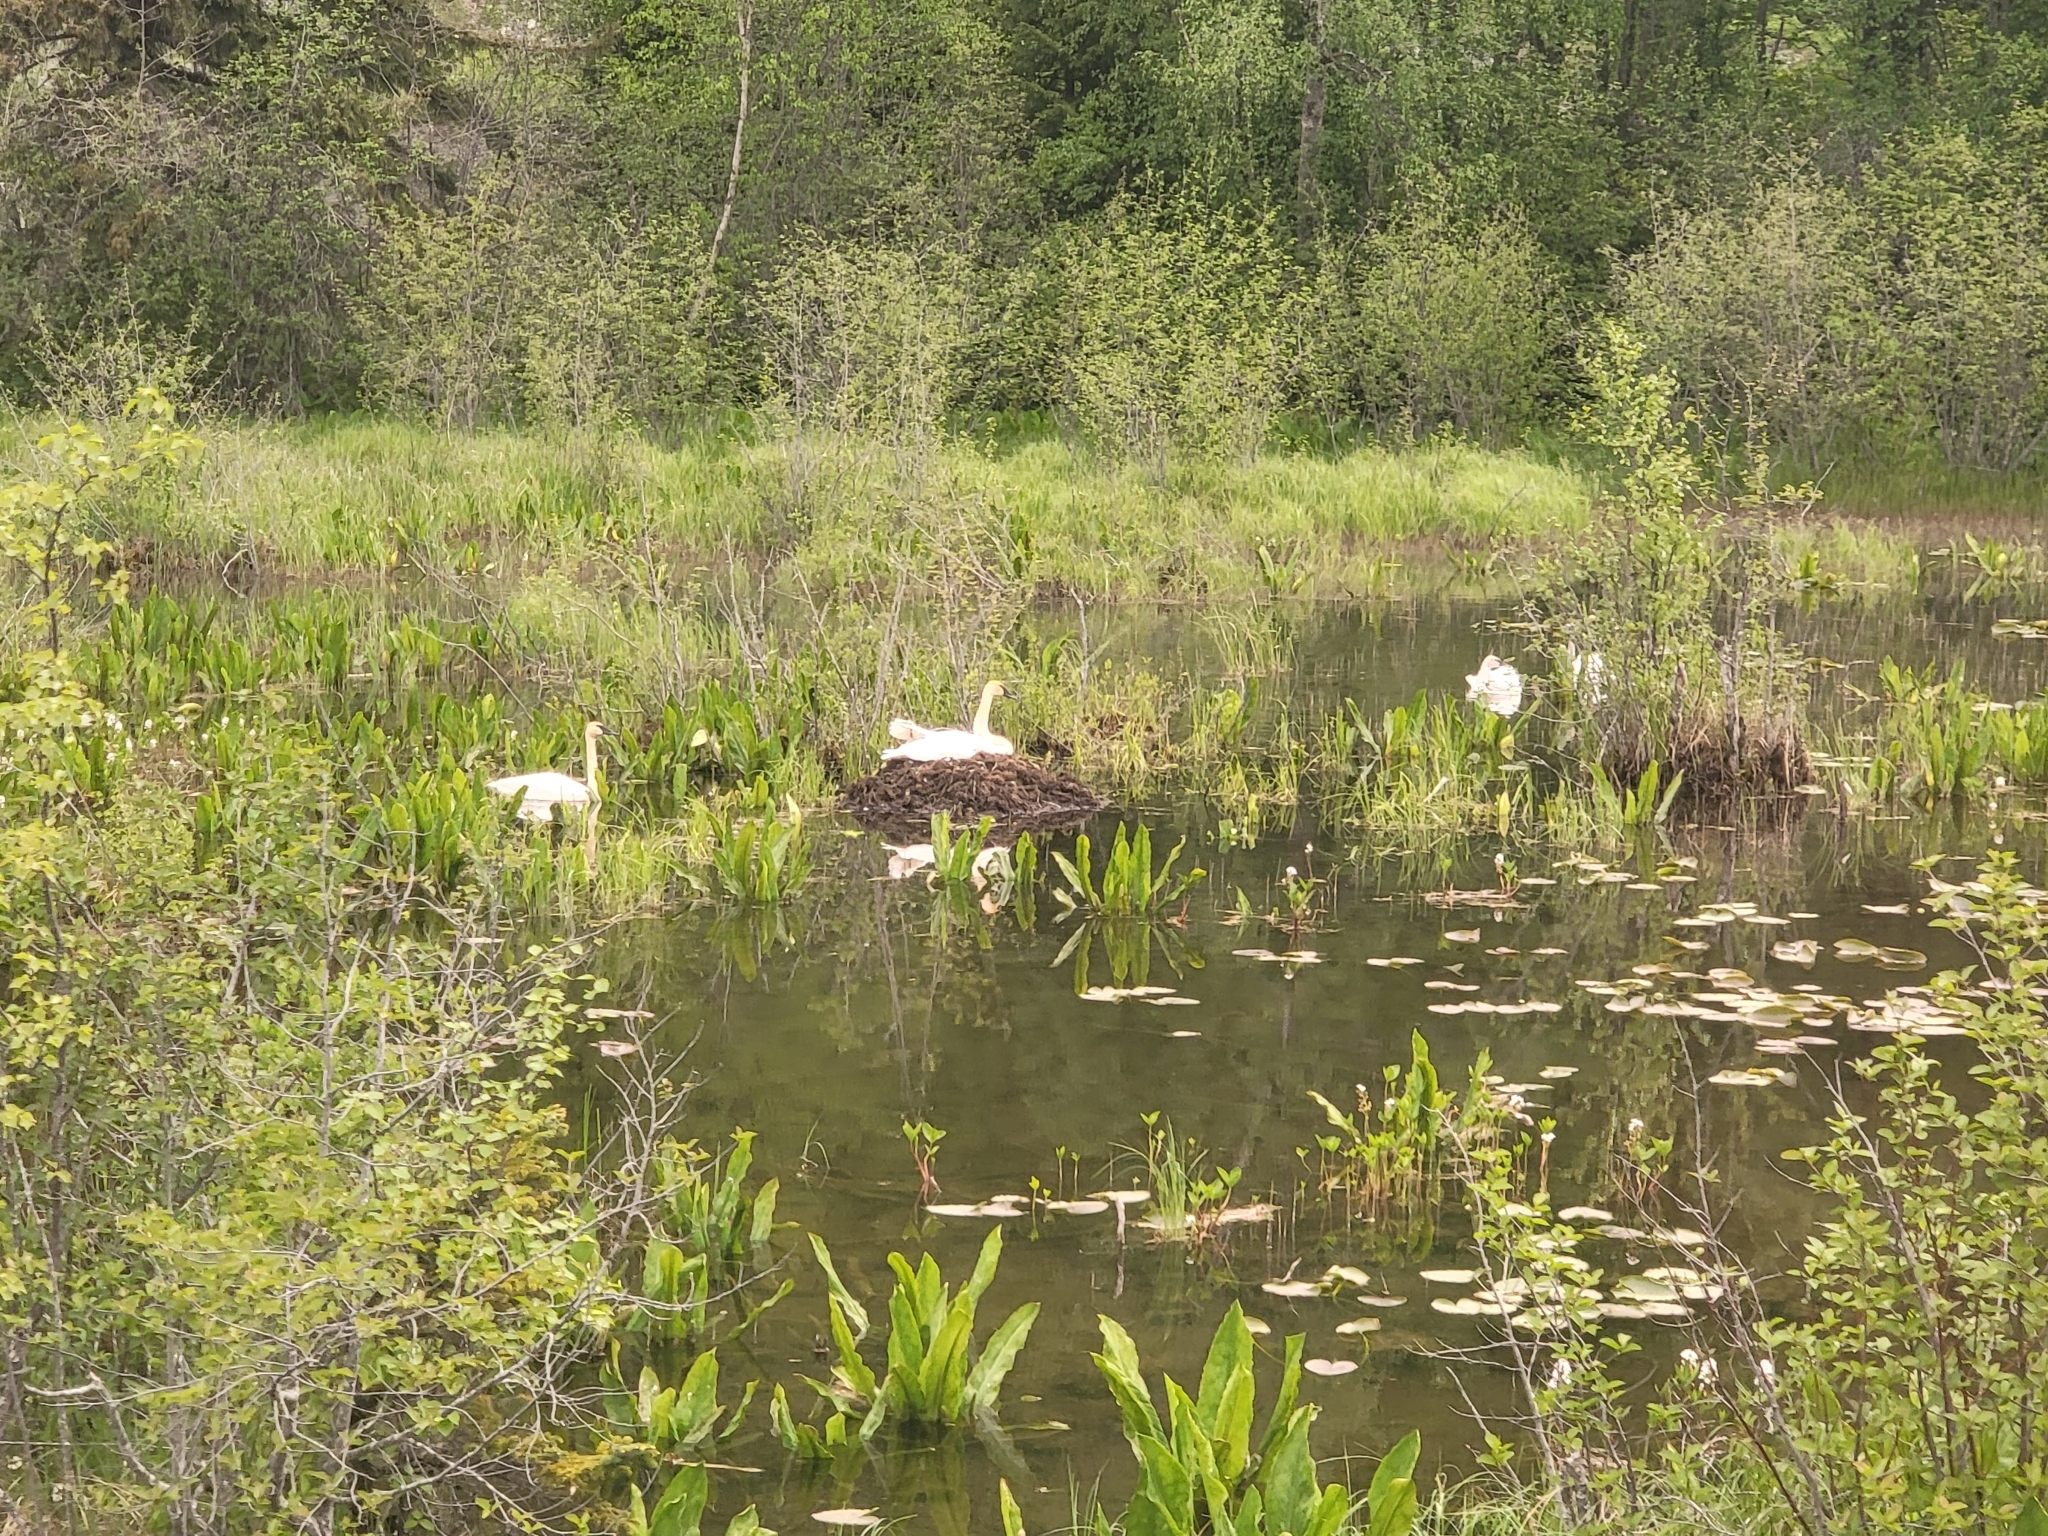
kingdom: Animalia
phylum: Chordata
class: Aves
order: Anseriformes
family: Anatidae
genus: Cygnus
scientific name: Cygnus buccinator
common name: Trumpeter swan
